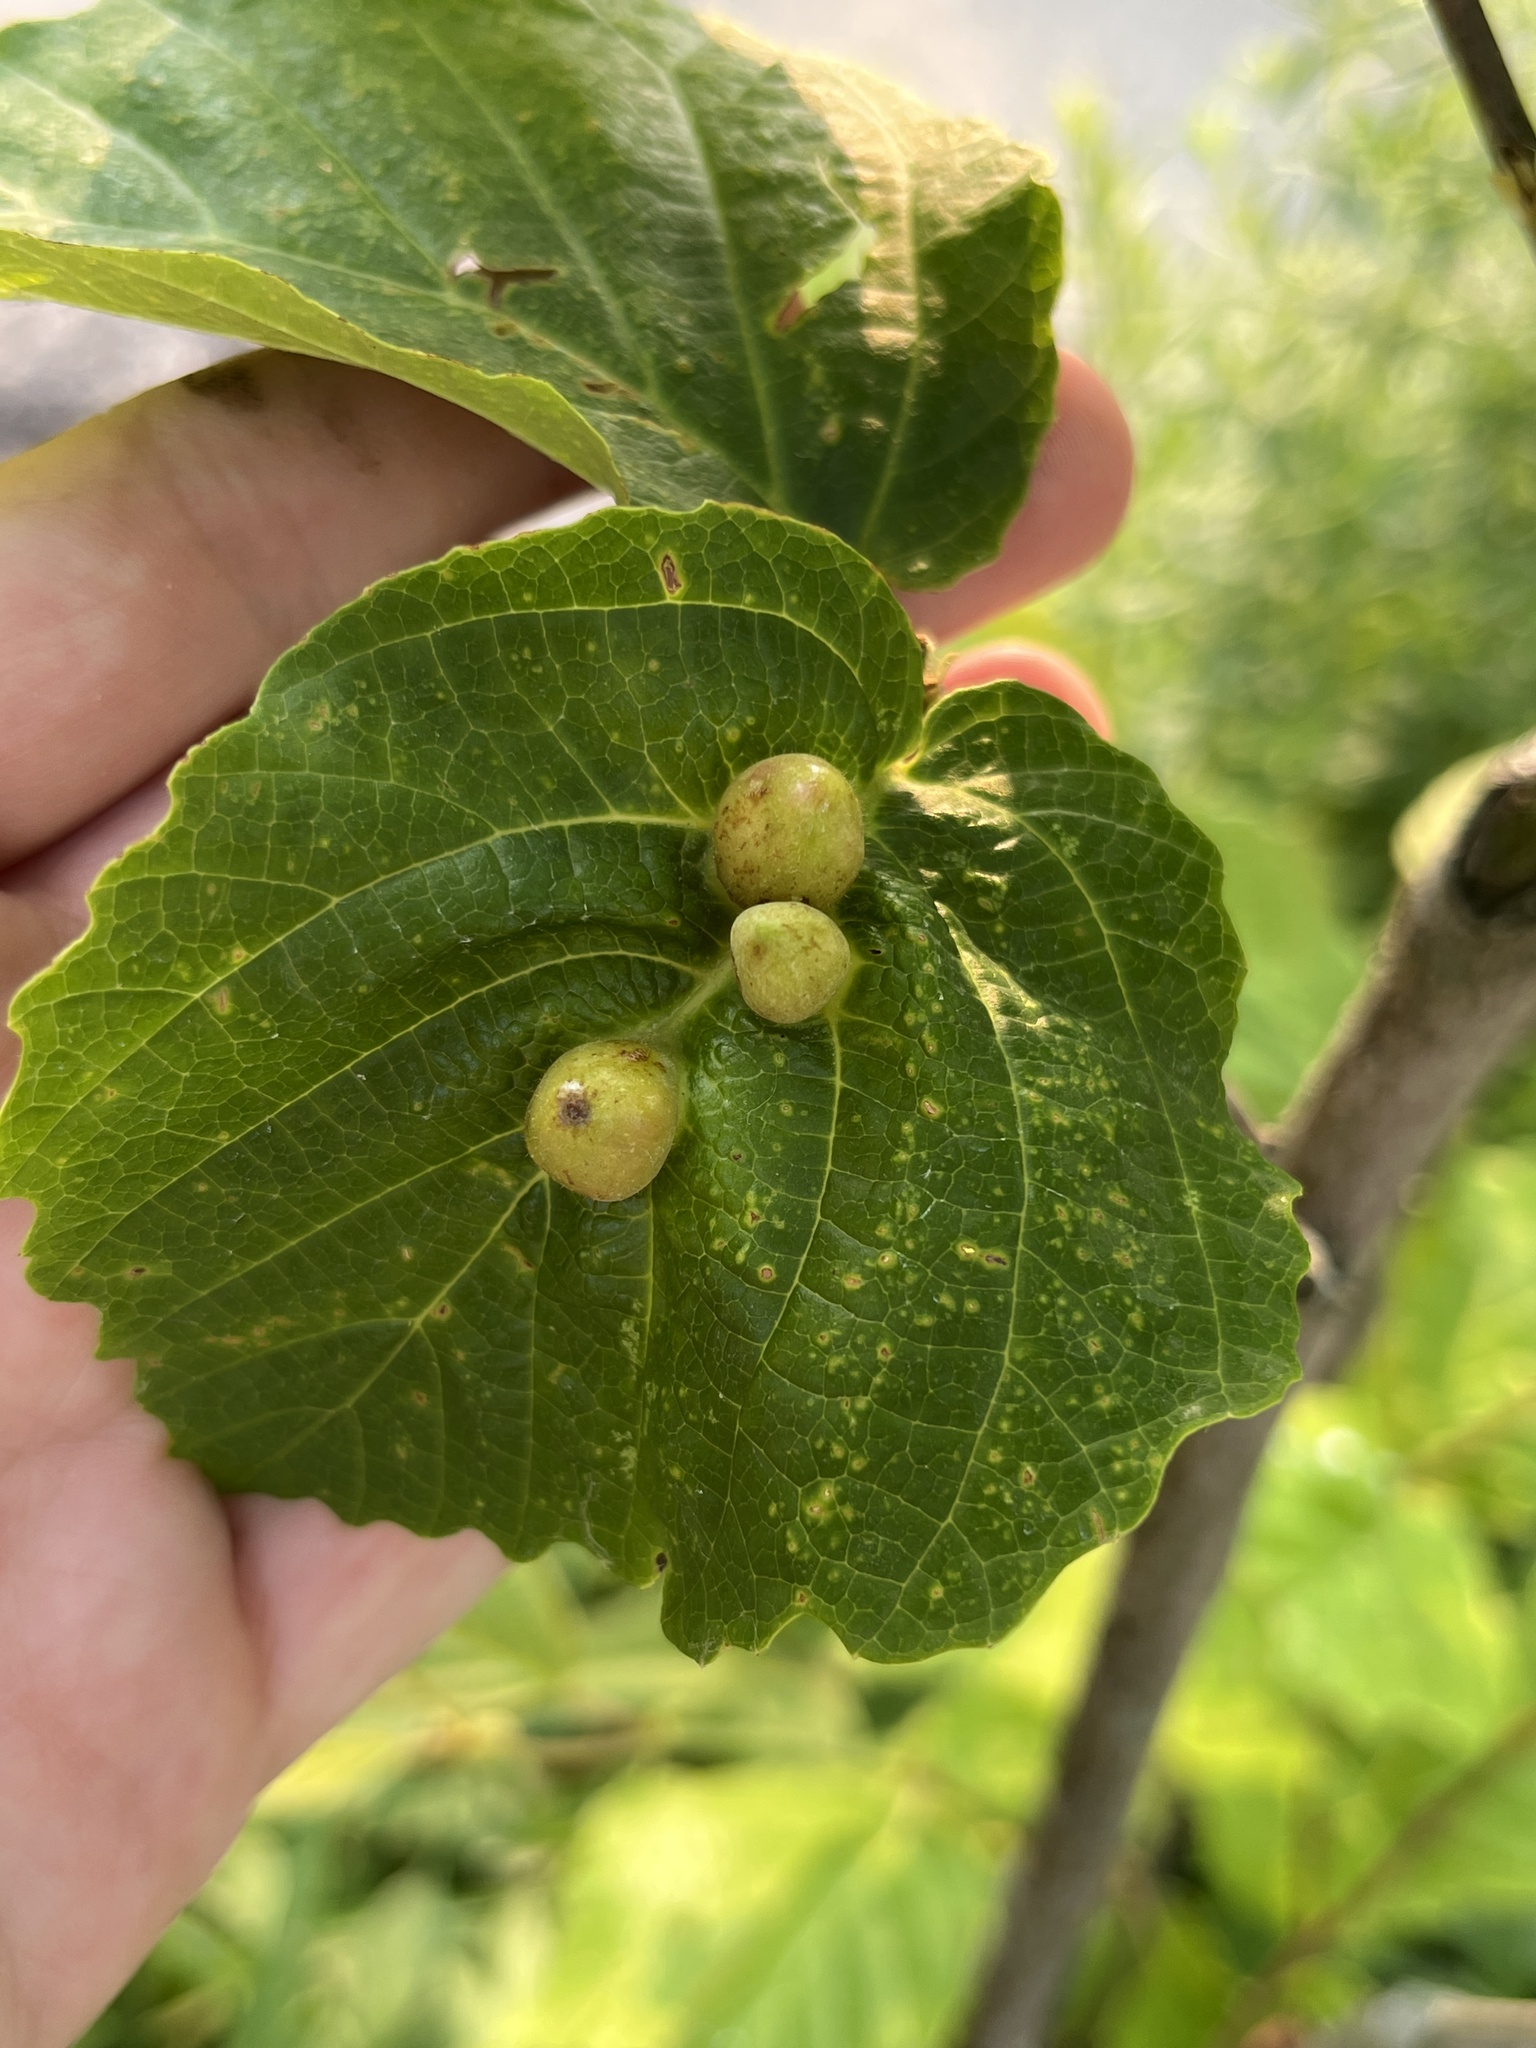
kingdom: Animalia
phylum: Arthropoda
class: Insecta
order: Hemiptera
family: Aphididae
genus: Hormaphis
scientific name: Hormaphis hamamelidis
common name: Witch-hazel cone gall aphid
